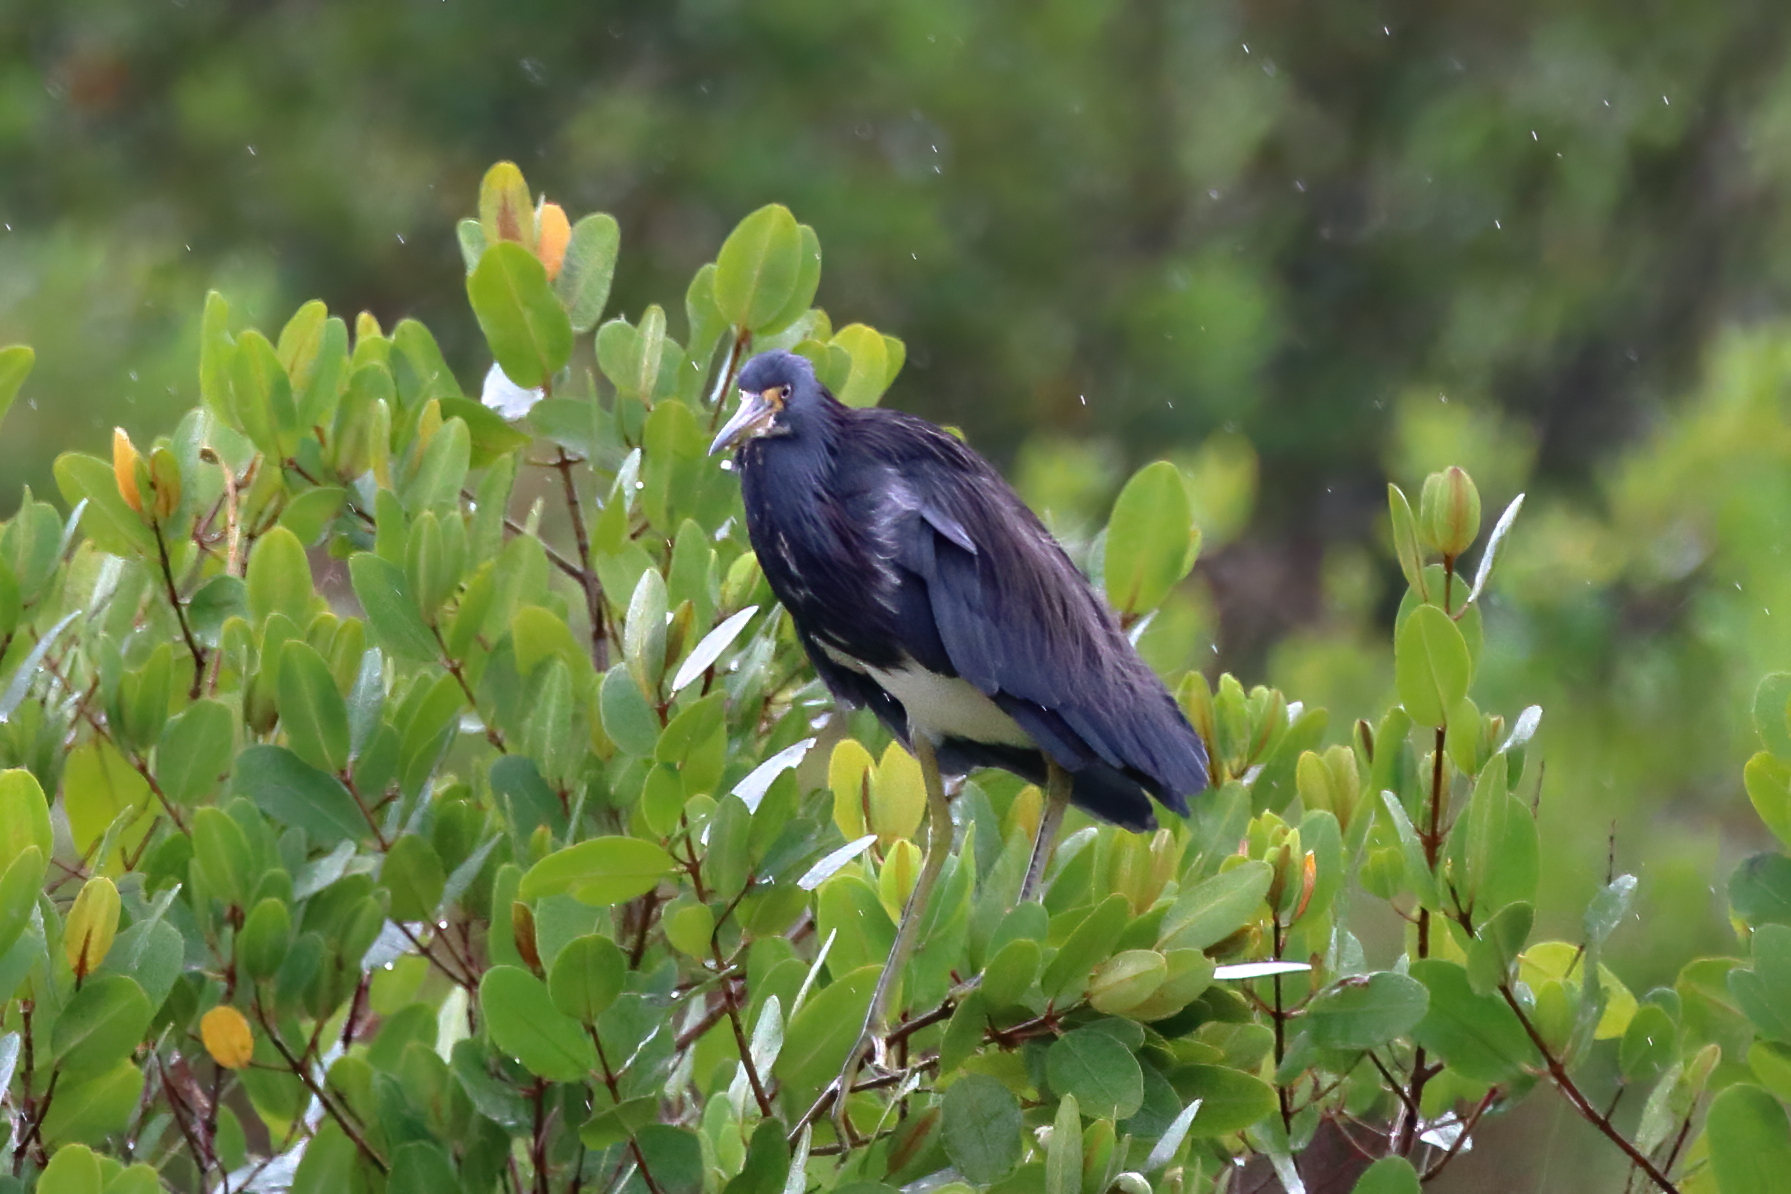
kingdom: Animalia
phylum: Chordata
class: Aves
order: Pelecaniformes
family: Ardeidae
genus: Egretta
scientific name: Egretta tricolor
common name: Tricolored heron
